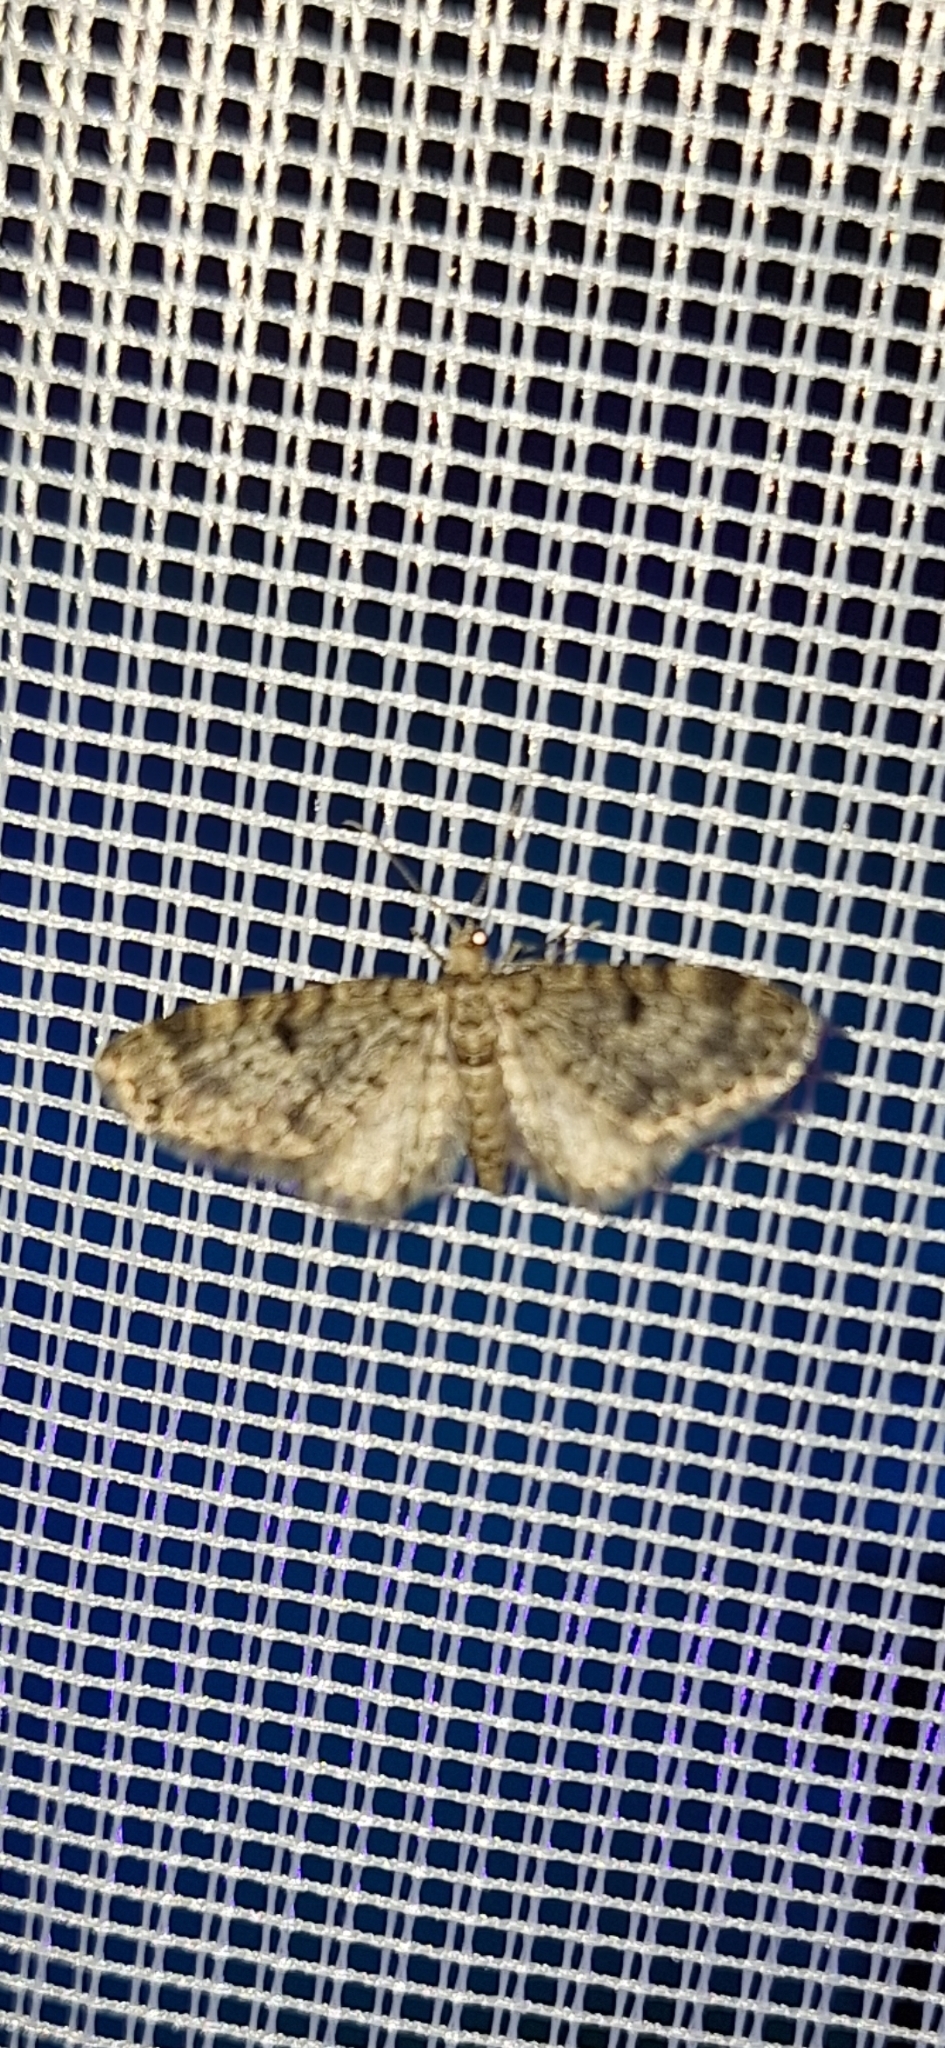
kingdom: Animalia
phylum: Arthropoda
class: Insecta
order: Lepidoptera
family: Geometridae
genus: Eupithecia
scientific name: Eupithecia tantillaria
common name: Dwarf pug
